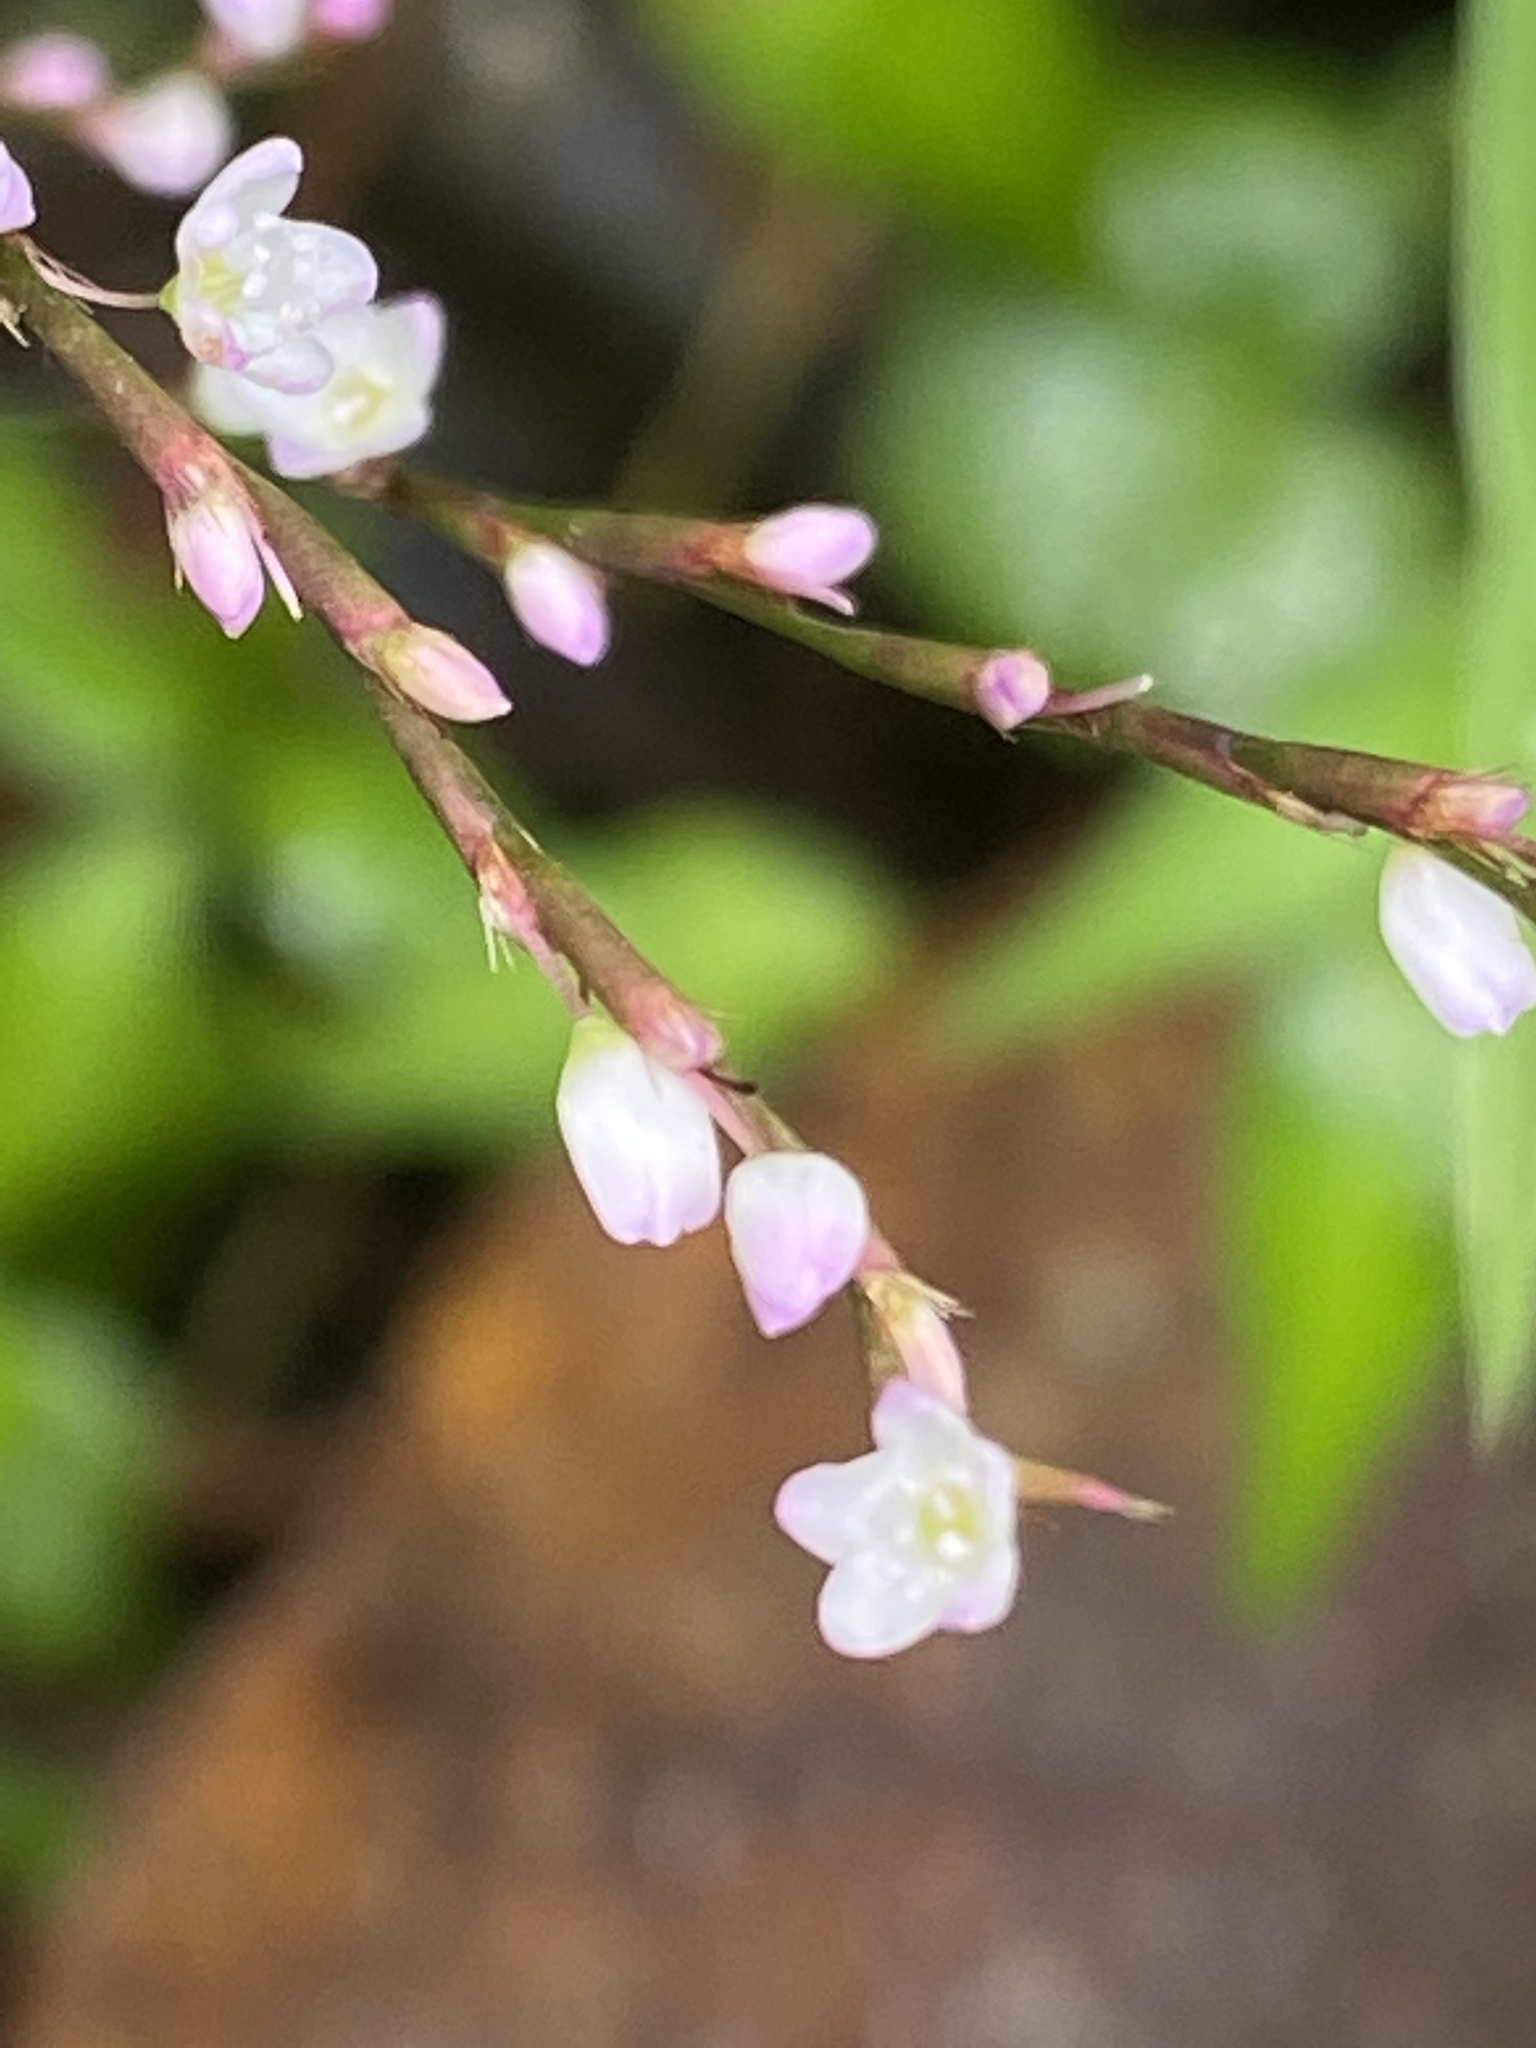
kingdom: Plantae
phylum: Tracheophyta
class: Magnoliopsida
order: Caryophyllales
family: Polygonaceae
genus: Persicaria
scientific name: Persicaria posumbu
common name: Oriental lady's thumb
